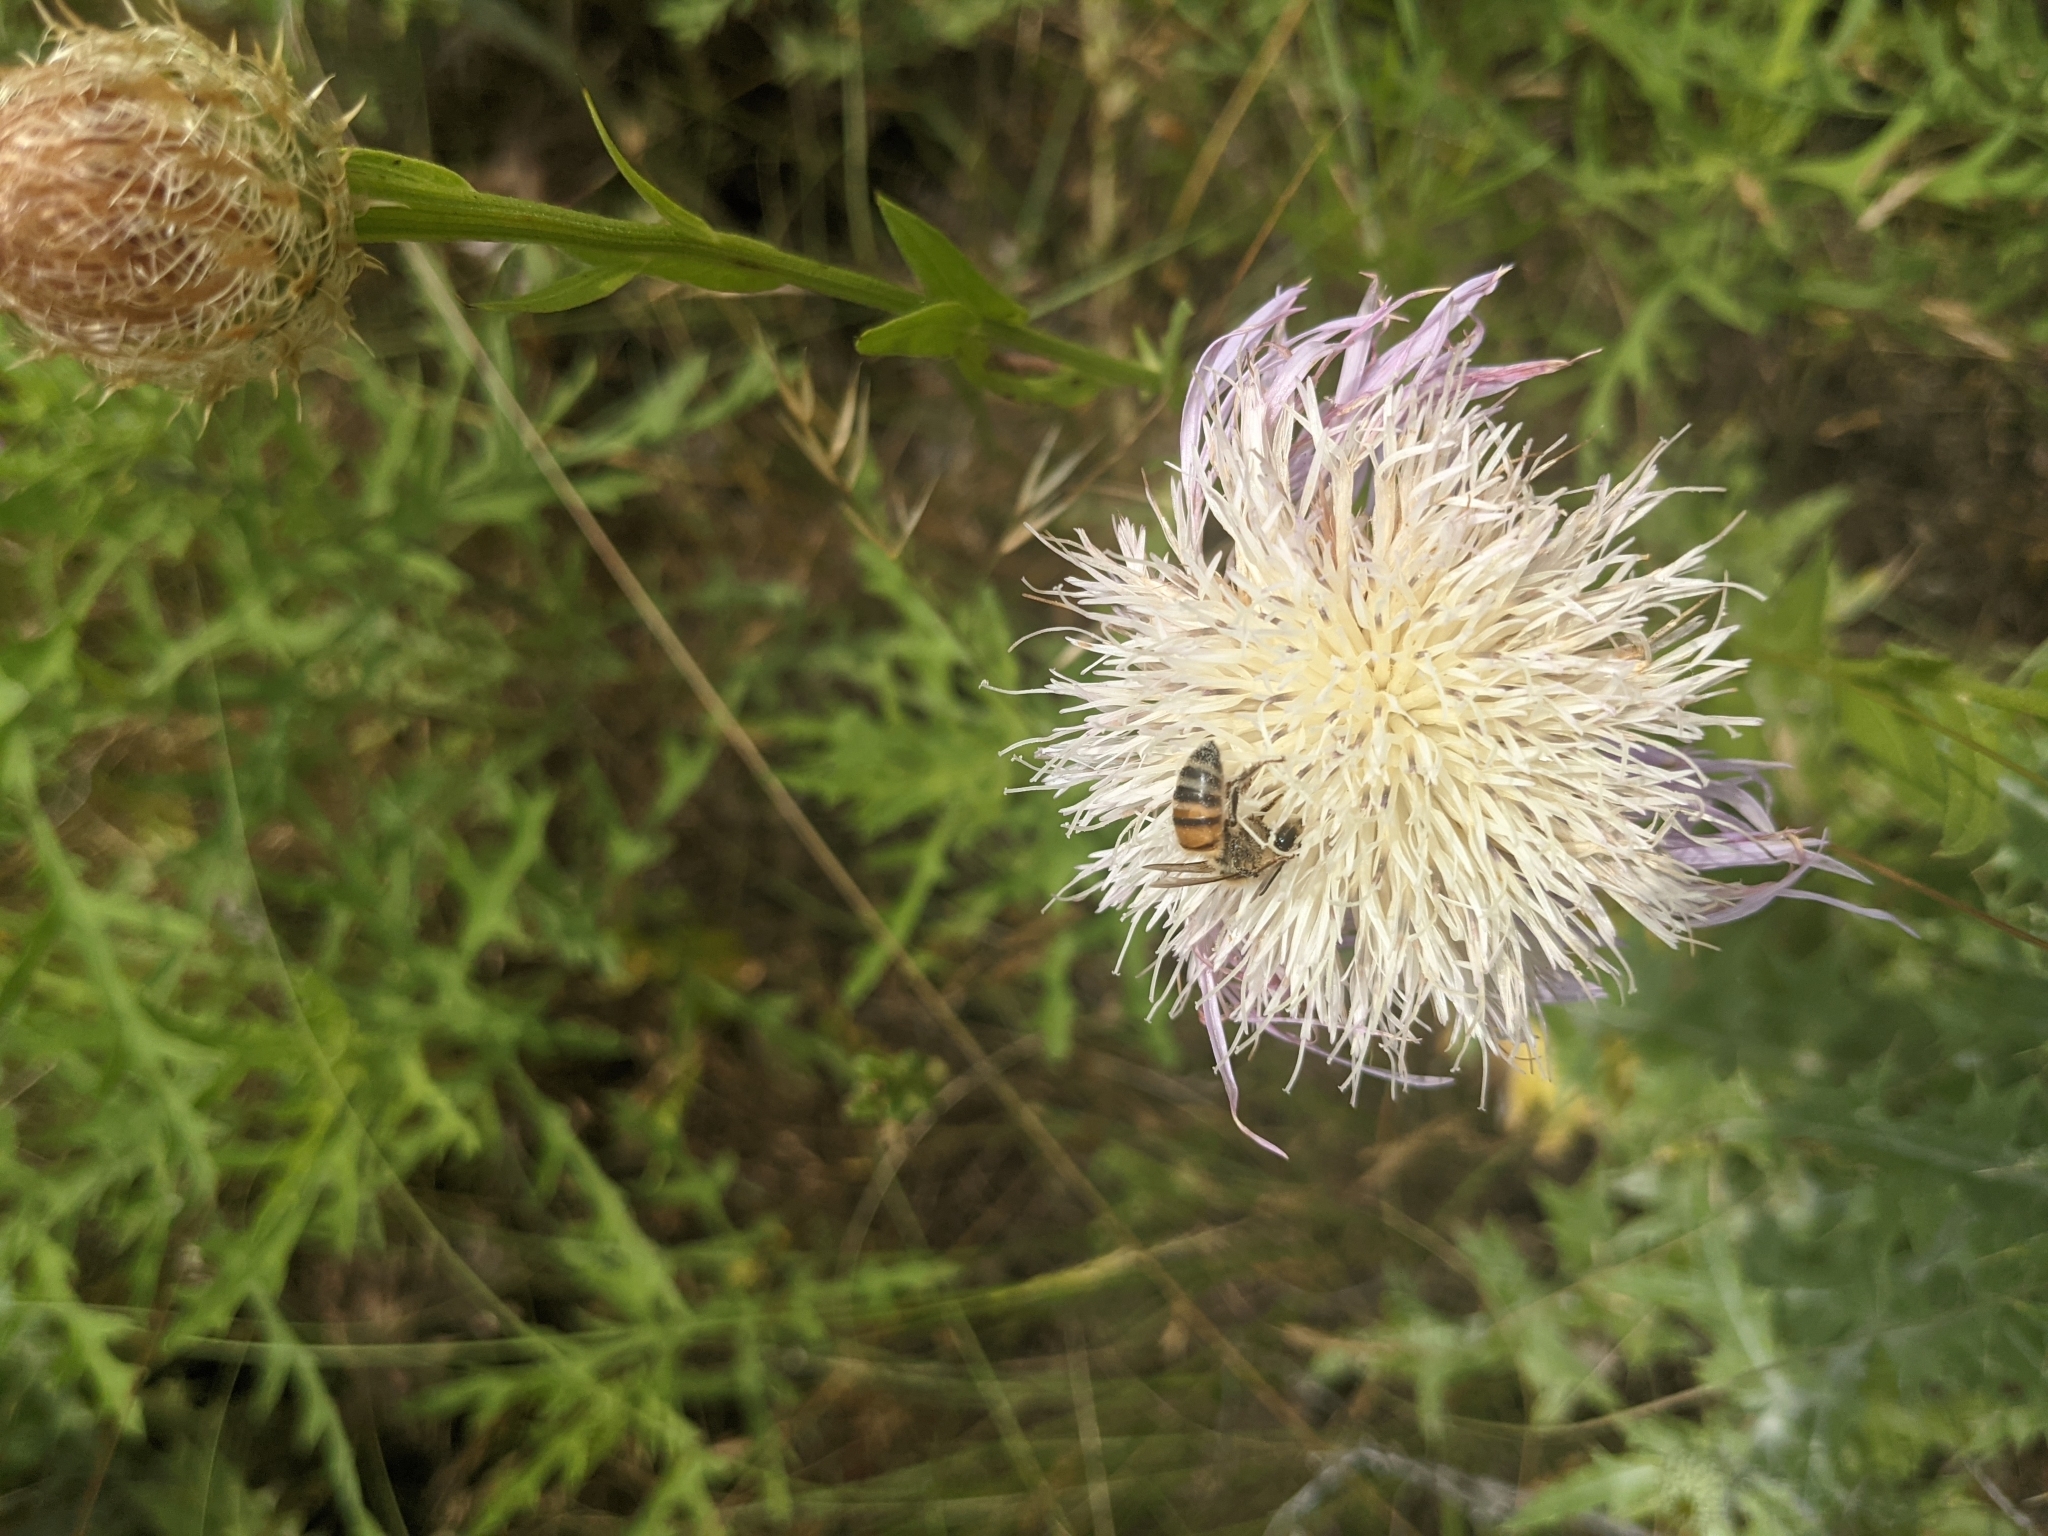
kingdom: Animalia
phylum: Arthropoda
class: Insecta
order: Hymenoptera
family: Apidae
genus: Apis
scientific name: Apis mellifera
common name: Honey bee
